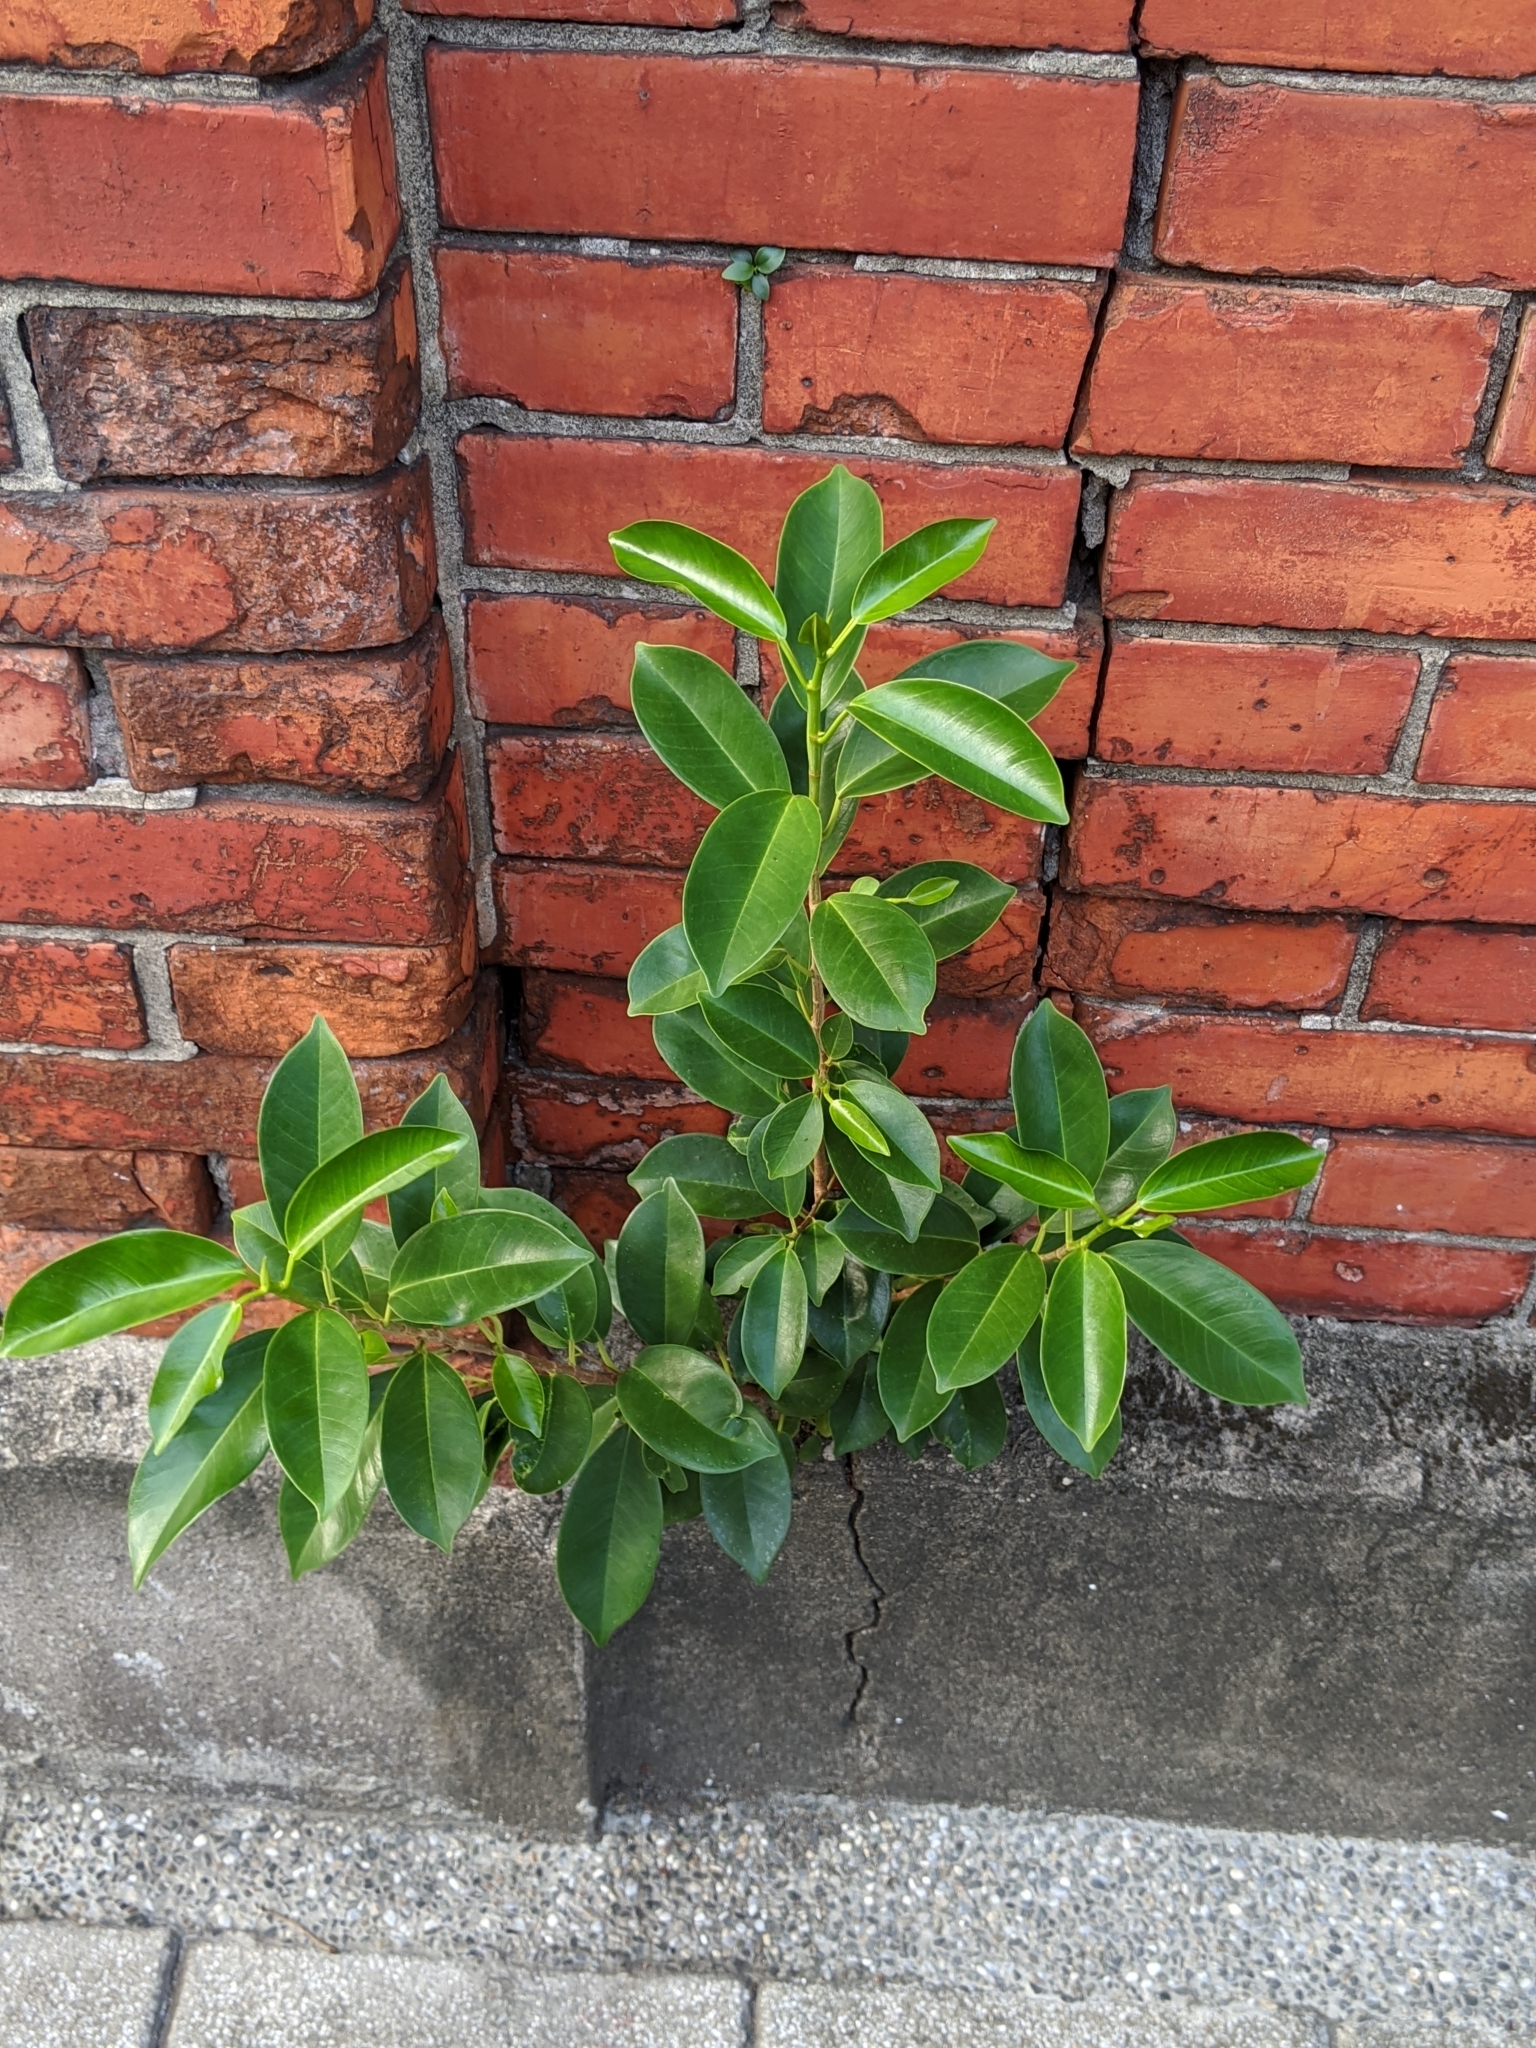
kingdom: Plantae
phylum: Tracheophyta
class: Magnoliopsida
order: Rosales
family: Moraceae
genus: Ficus
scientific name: Ficus microcarpa
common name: Chinese banyan
